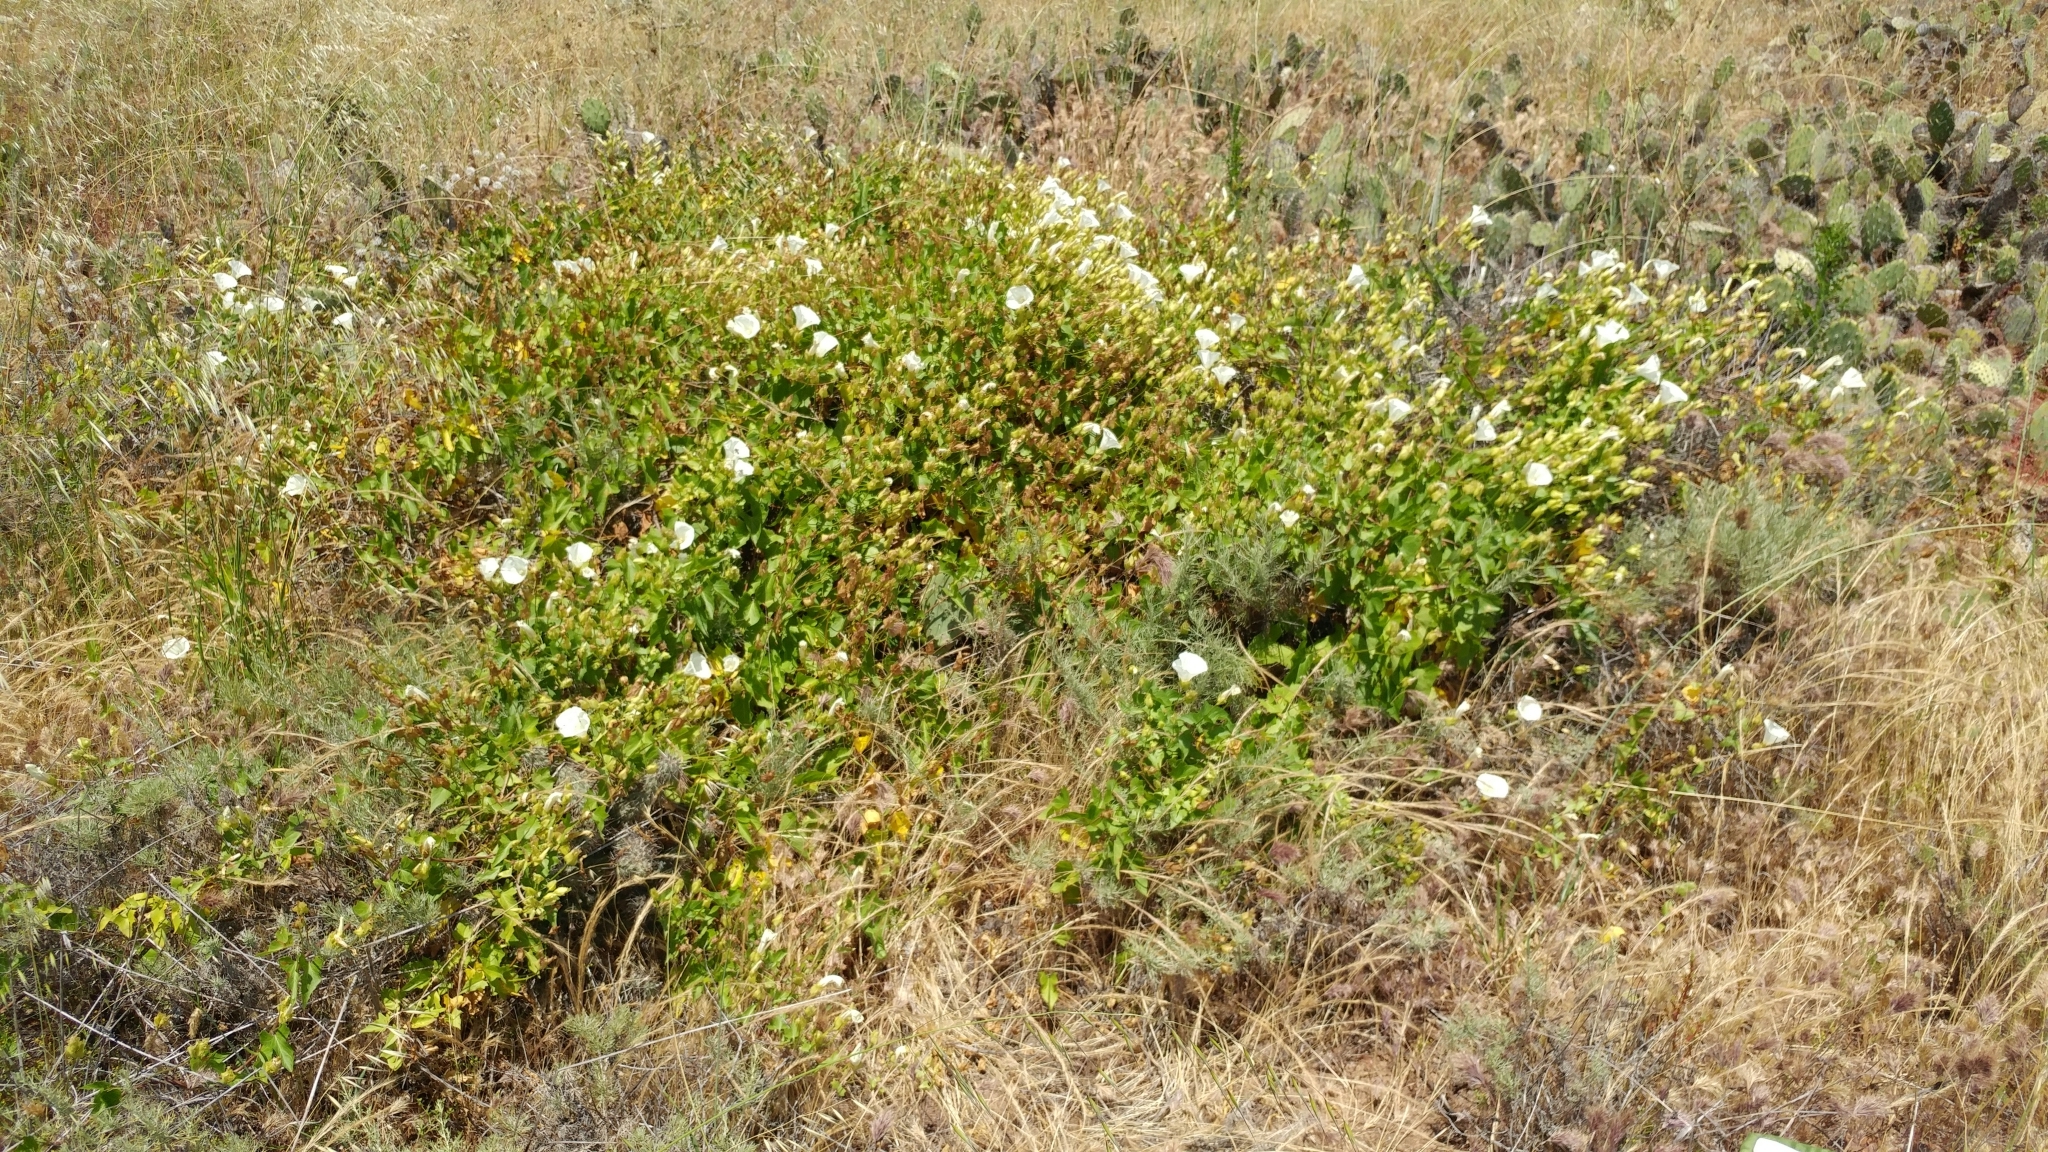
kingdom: Plantae
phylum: Tracheophyta
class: Magnoliopsida
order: Solanales
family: Convolvulaceae
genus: Calystegia
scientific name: Calystegia macrostegia
